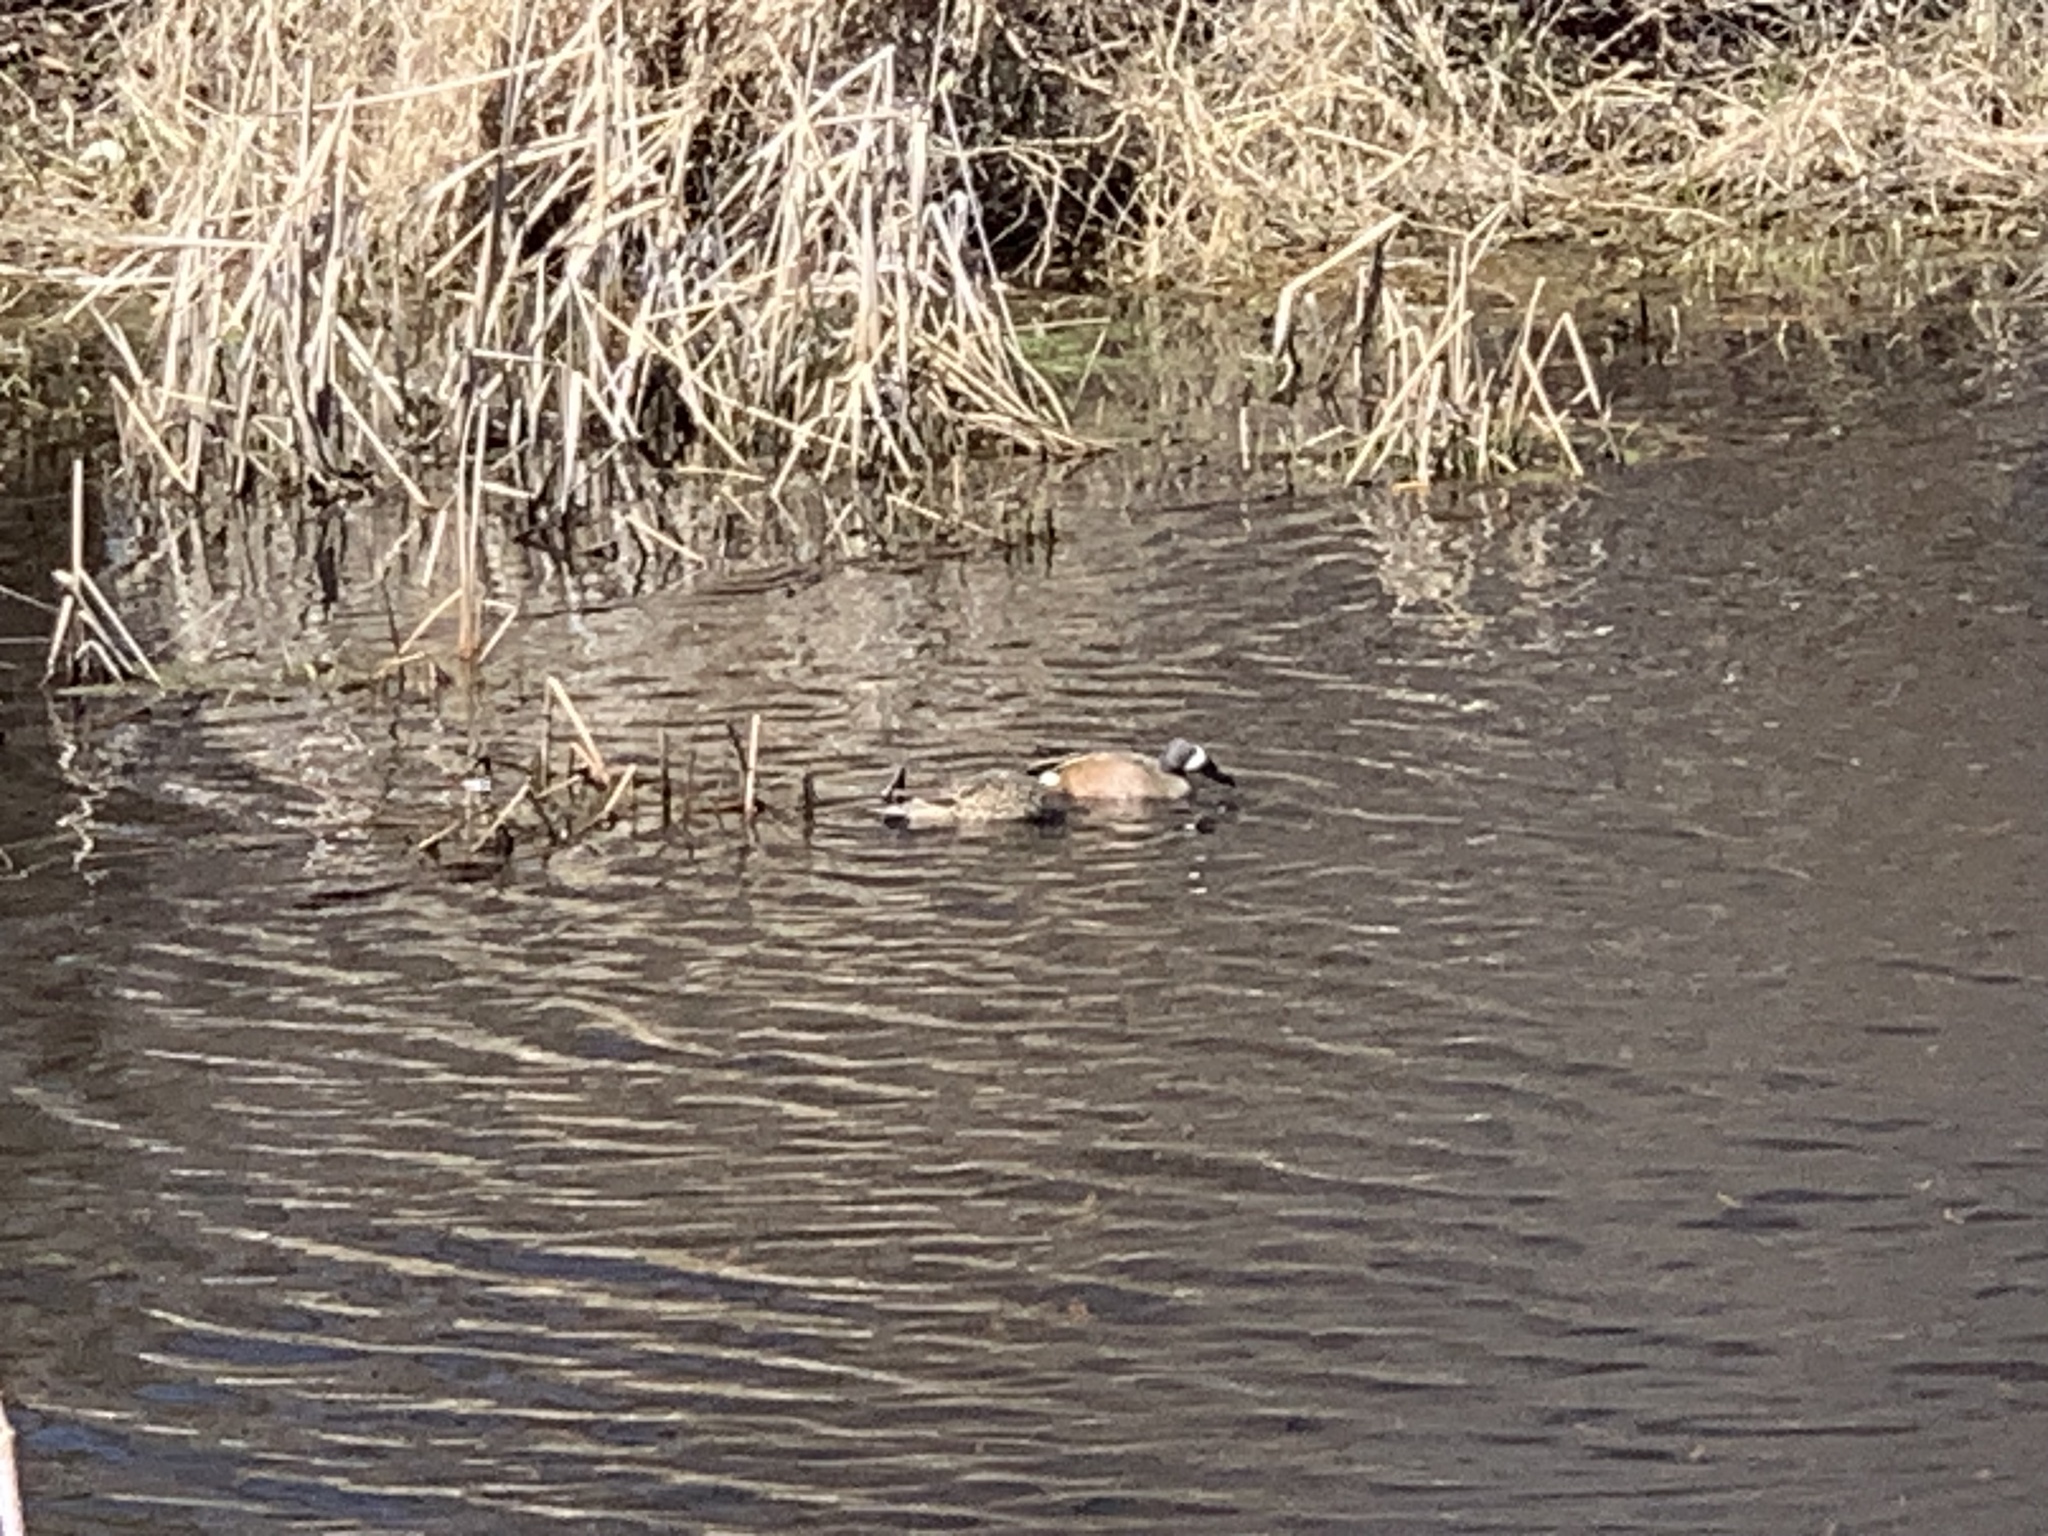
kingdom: Animalia
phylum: Chordata
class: Aves
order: Anseriformes
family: Anatidae
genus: Spatula
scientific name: Spatula discors
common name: Blue-winged teal
